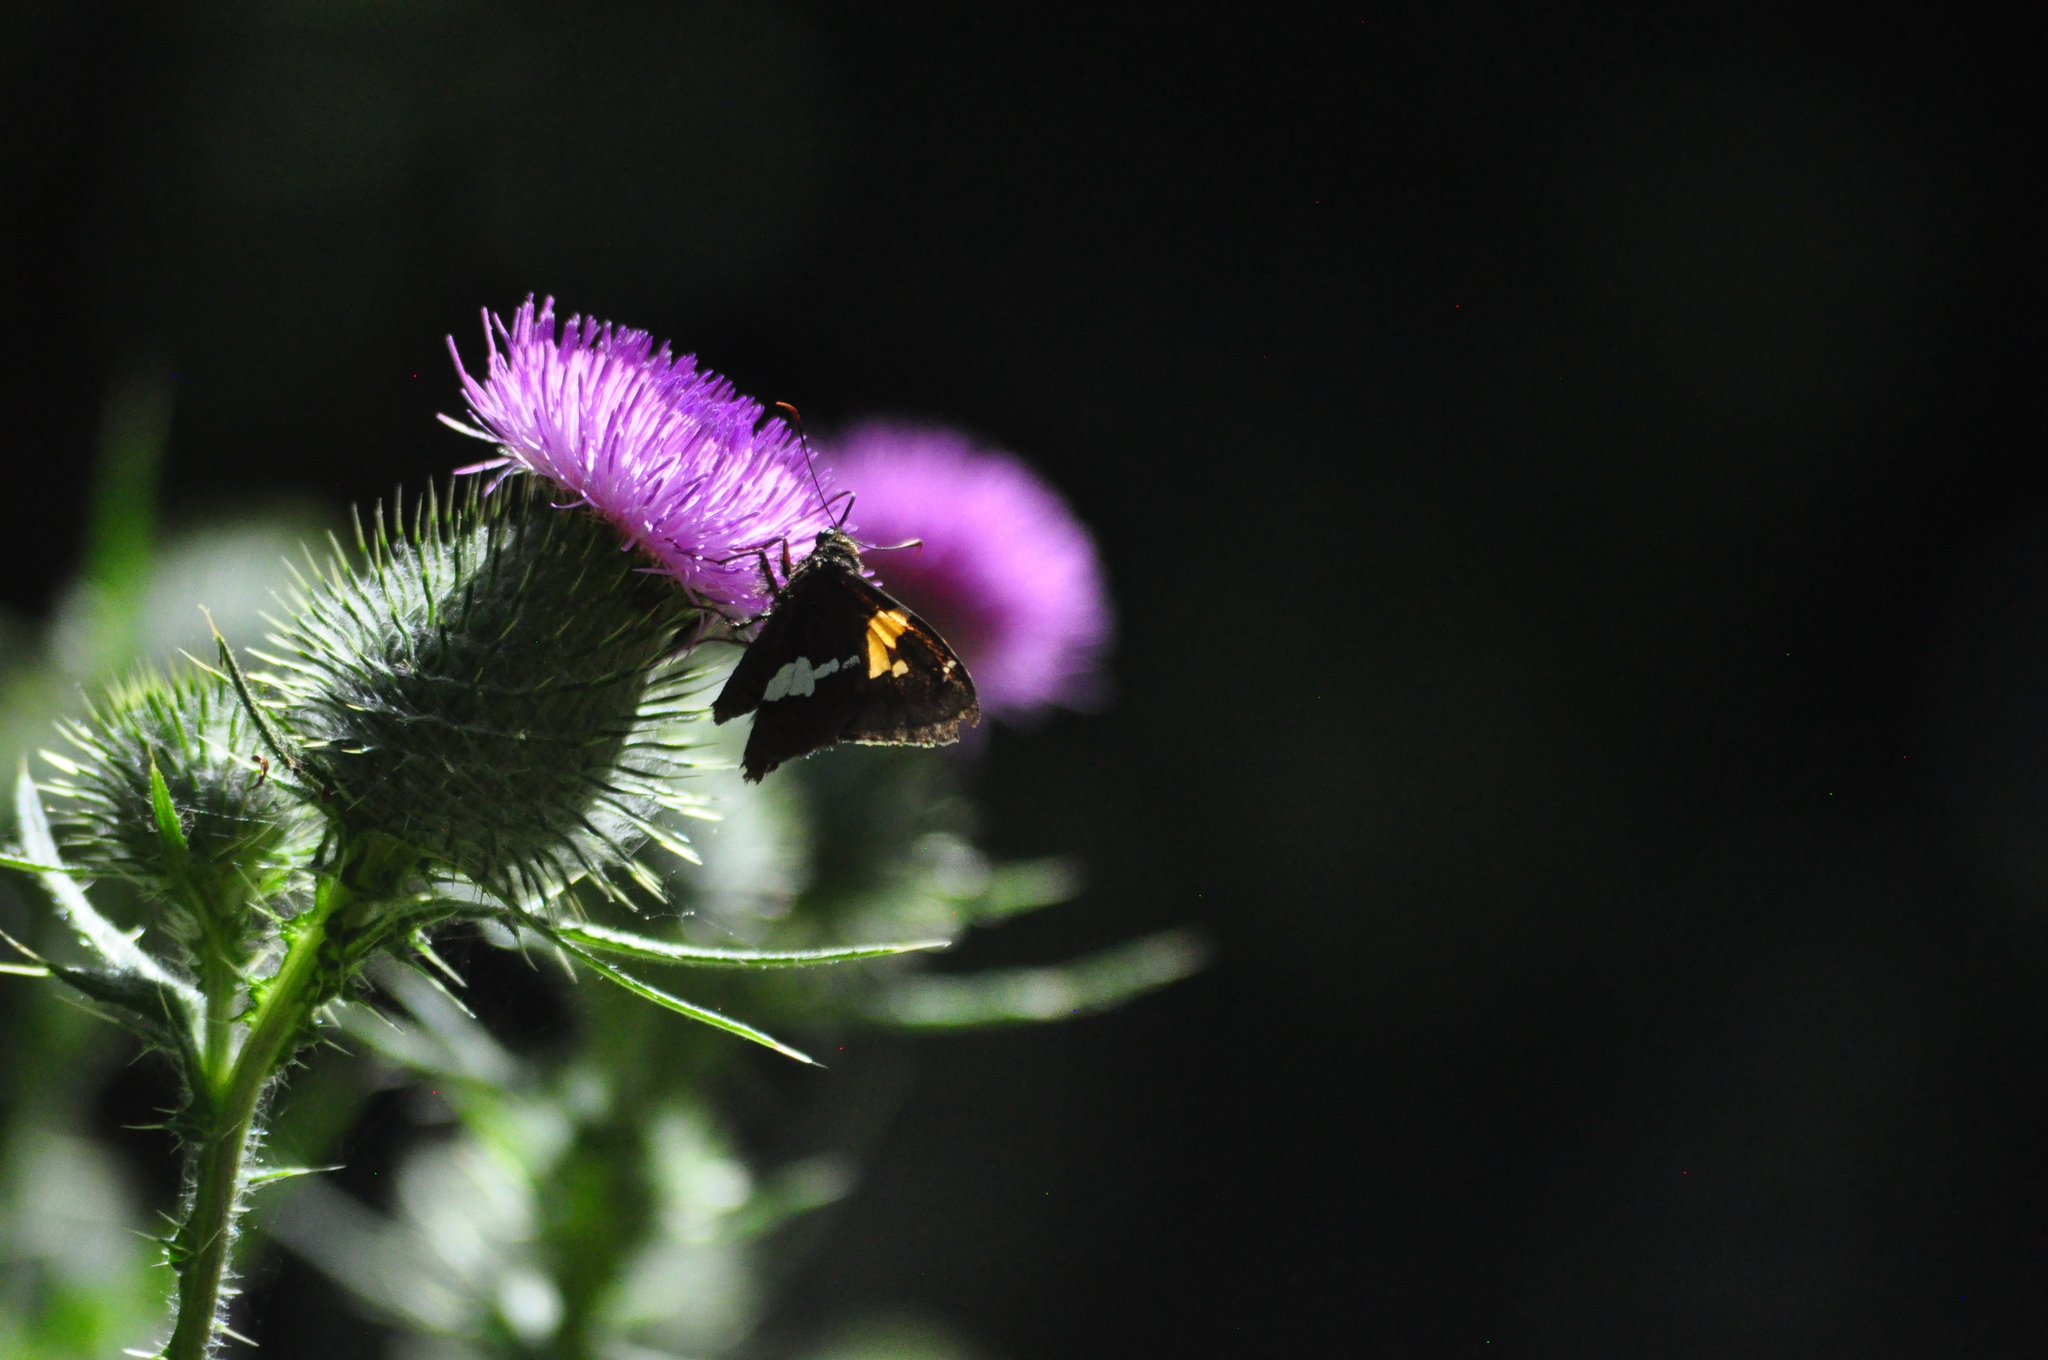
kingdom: Animalia
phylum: Arthropoda
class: Insecta
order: Lepidoptera
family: Hesperiidae
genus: Epargyreus
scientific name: Epargyreus clarus
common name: Silver-spotted skipper
